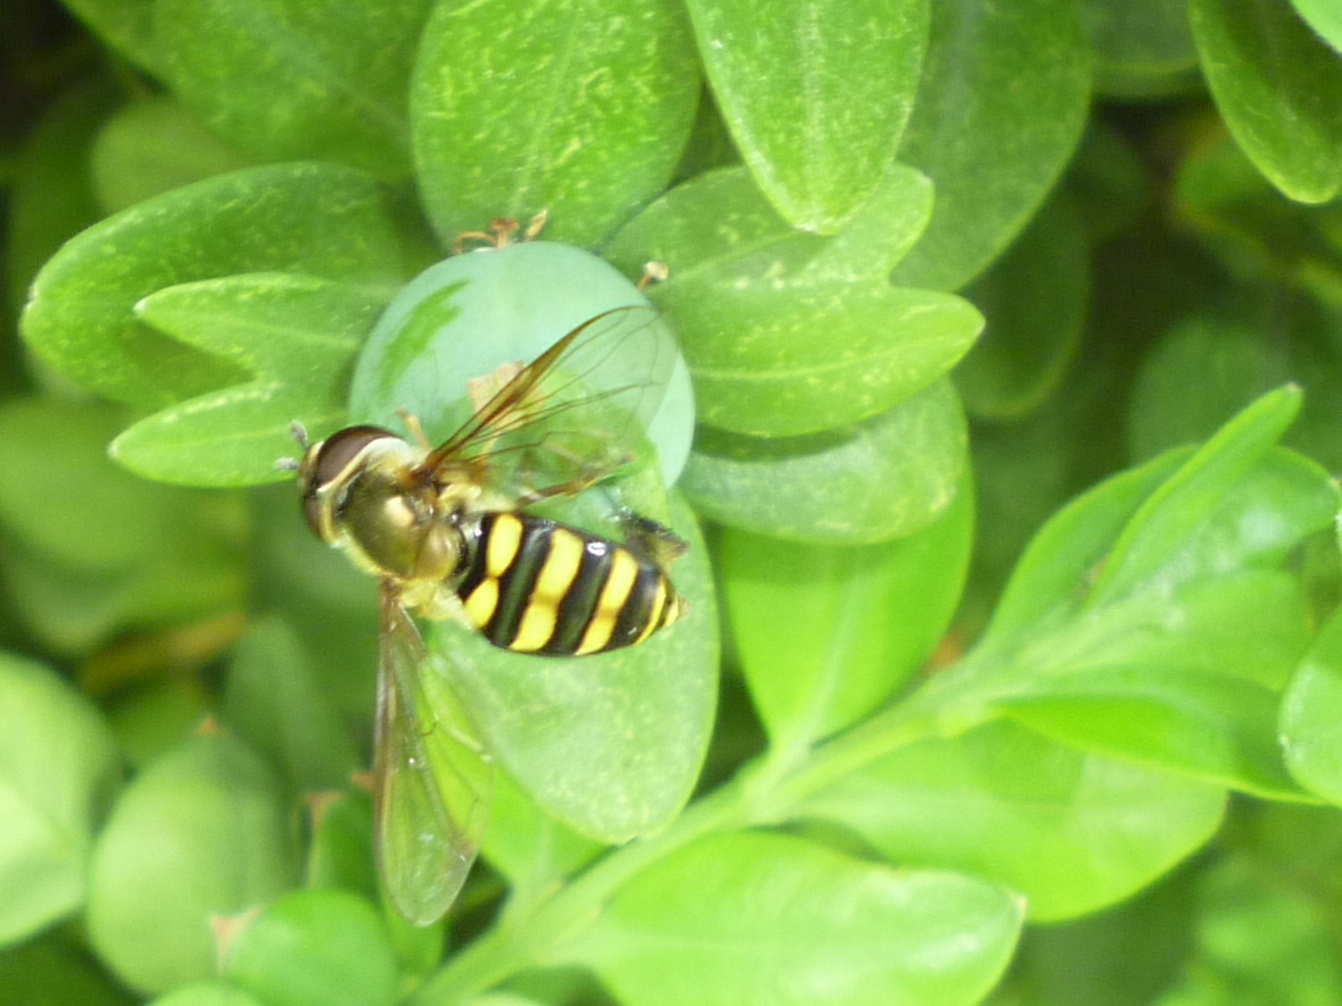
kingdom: Animalia
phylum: Arthropoda
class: Insecta
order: Diptera
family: Syrphidae
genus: Eupeodes
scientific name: Eupeodes
